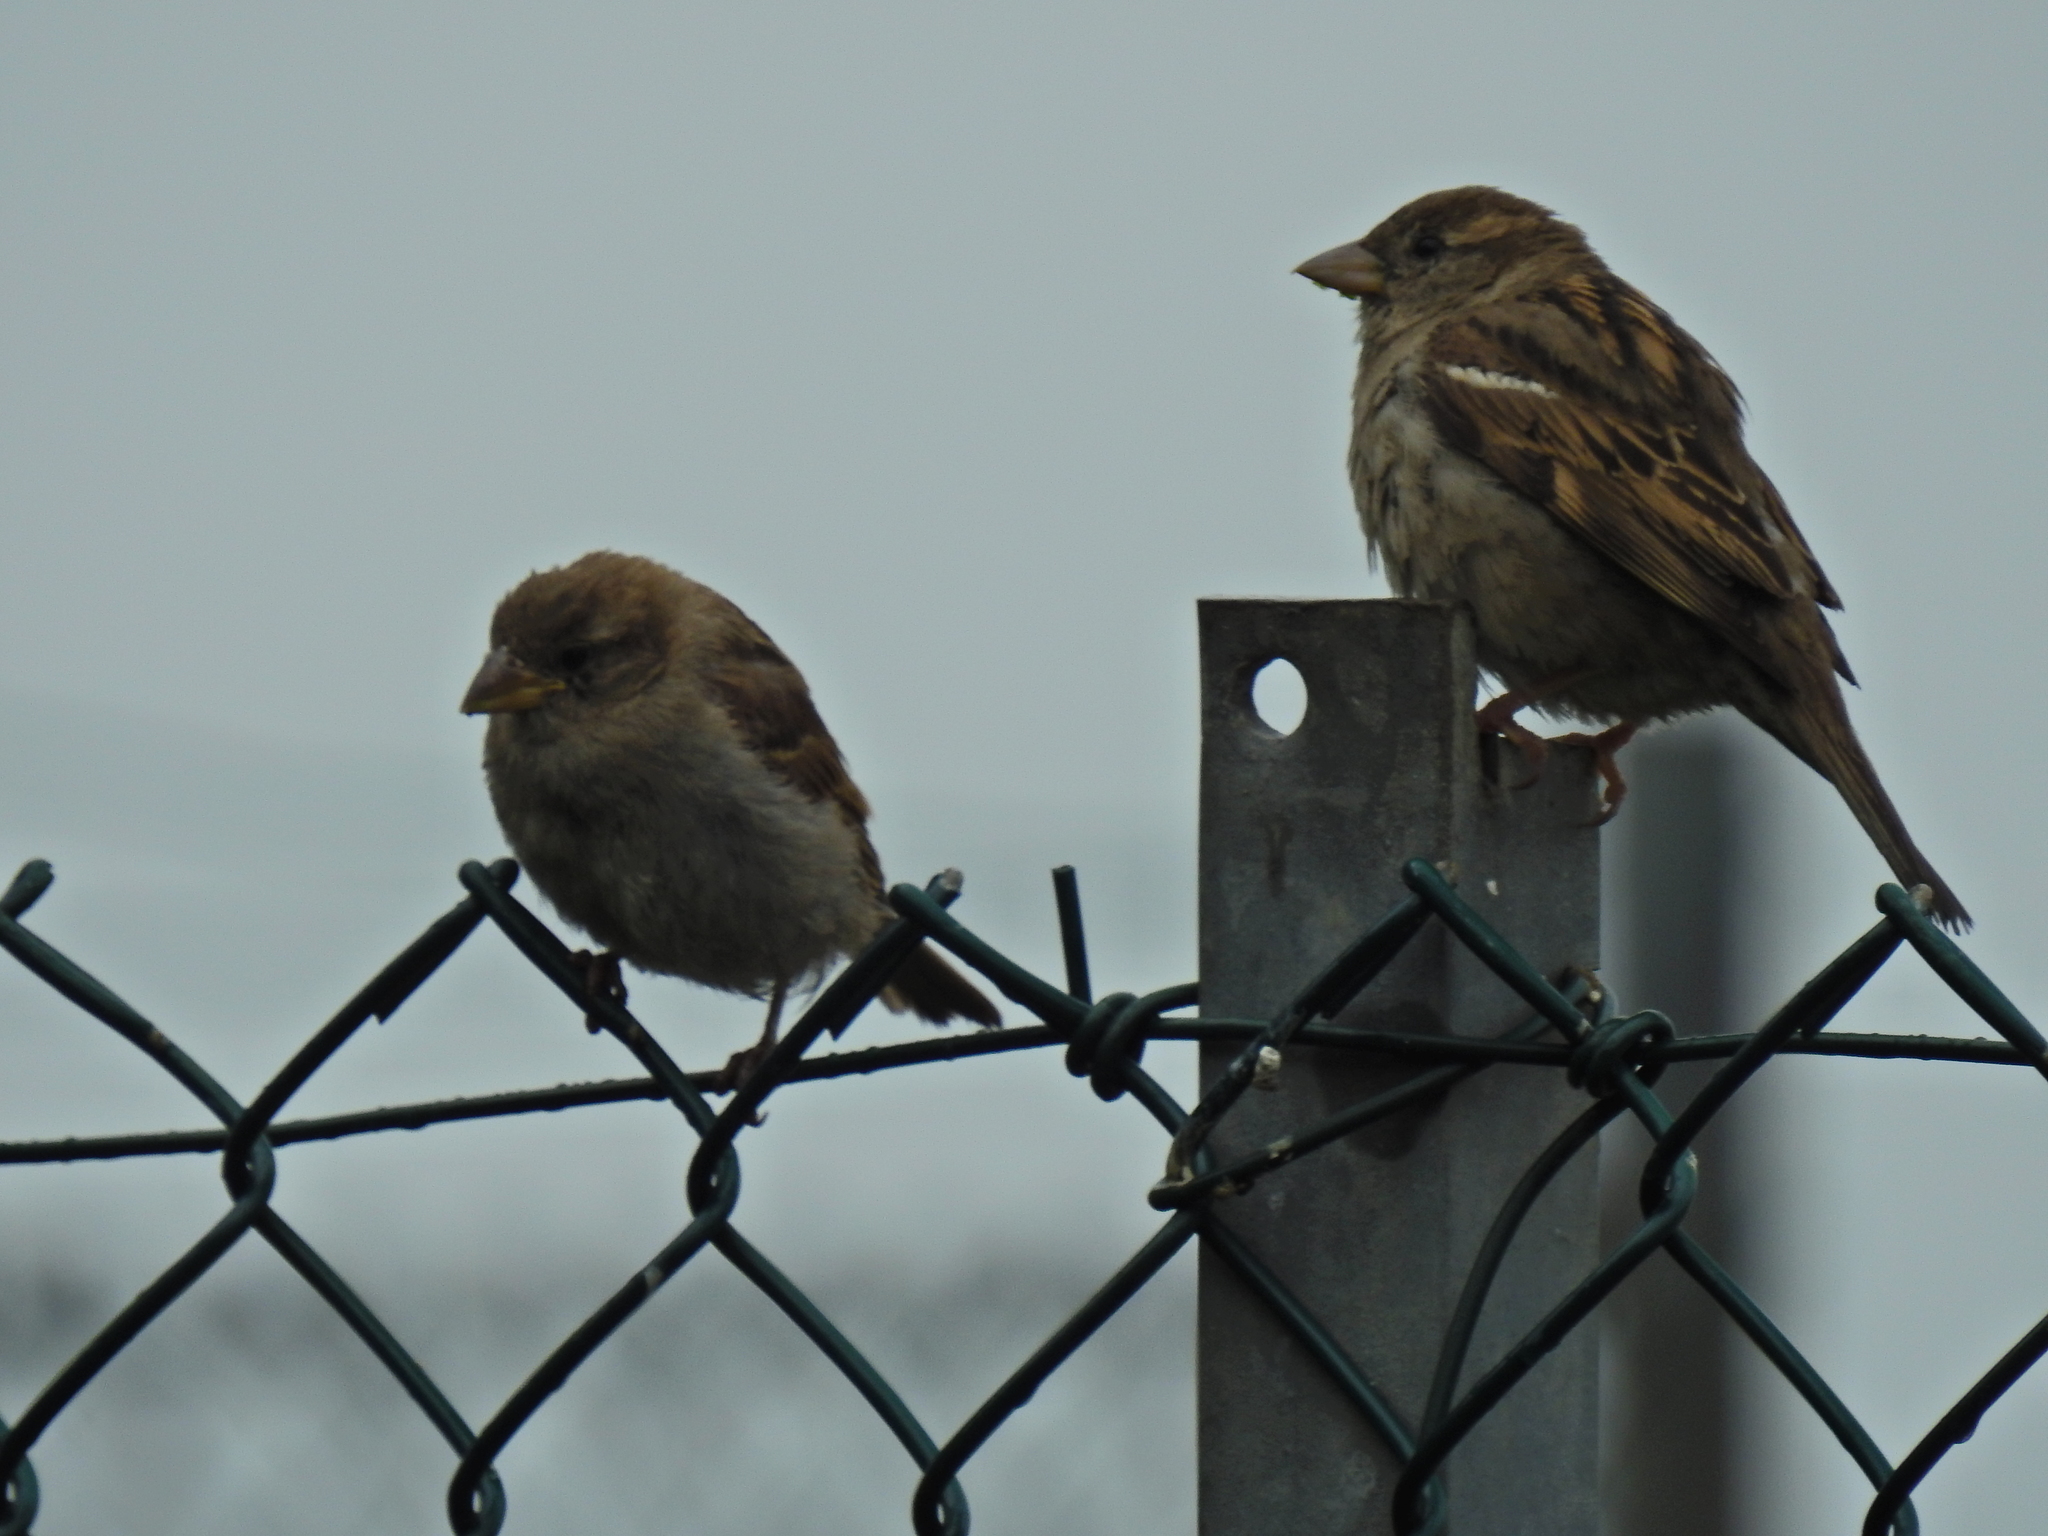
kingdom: Animalia
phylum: Chordata
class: Aves
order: Passeriformes
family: Passeridae
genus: Passer
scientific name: Passer domesticus
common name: House sparrow
